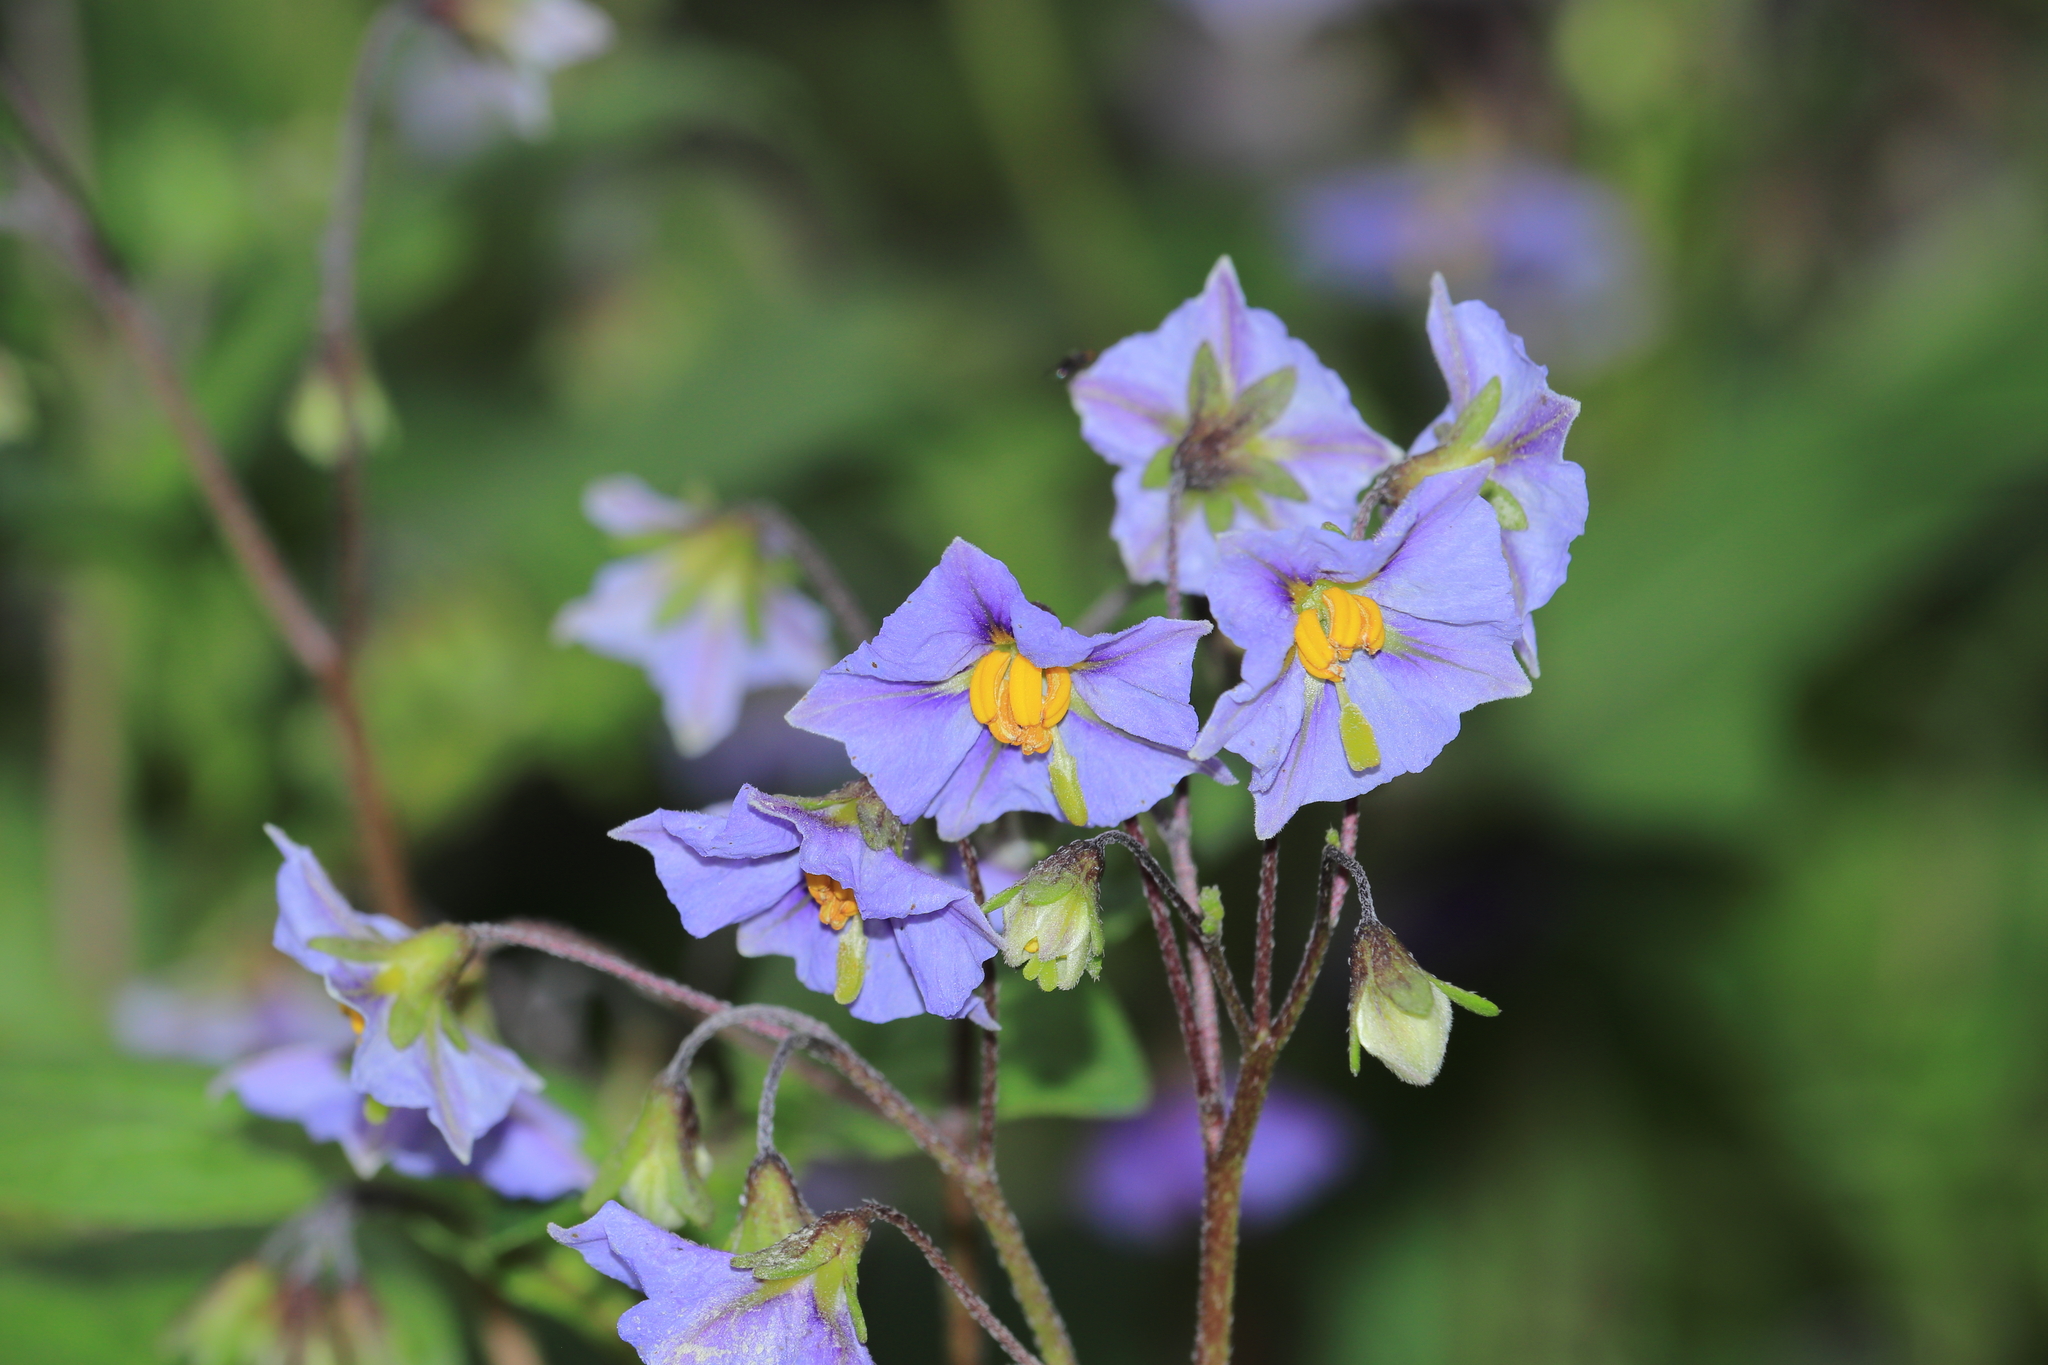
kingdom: Plantae
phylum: Tracheophyta
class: Magnoliopsida
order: Solanales
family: Solanaceae
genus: Solanum
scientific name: Solanum montanum
